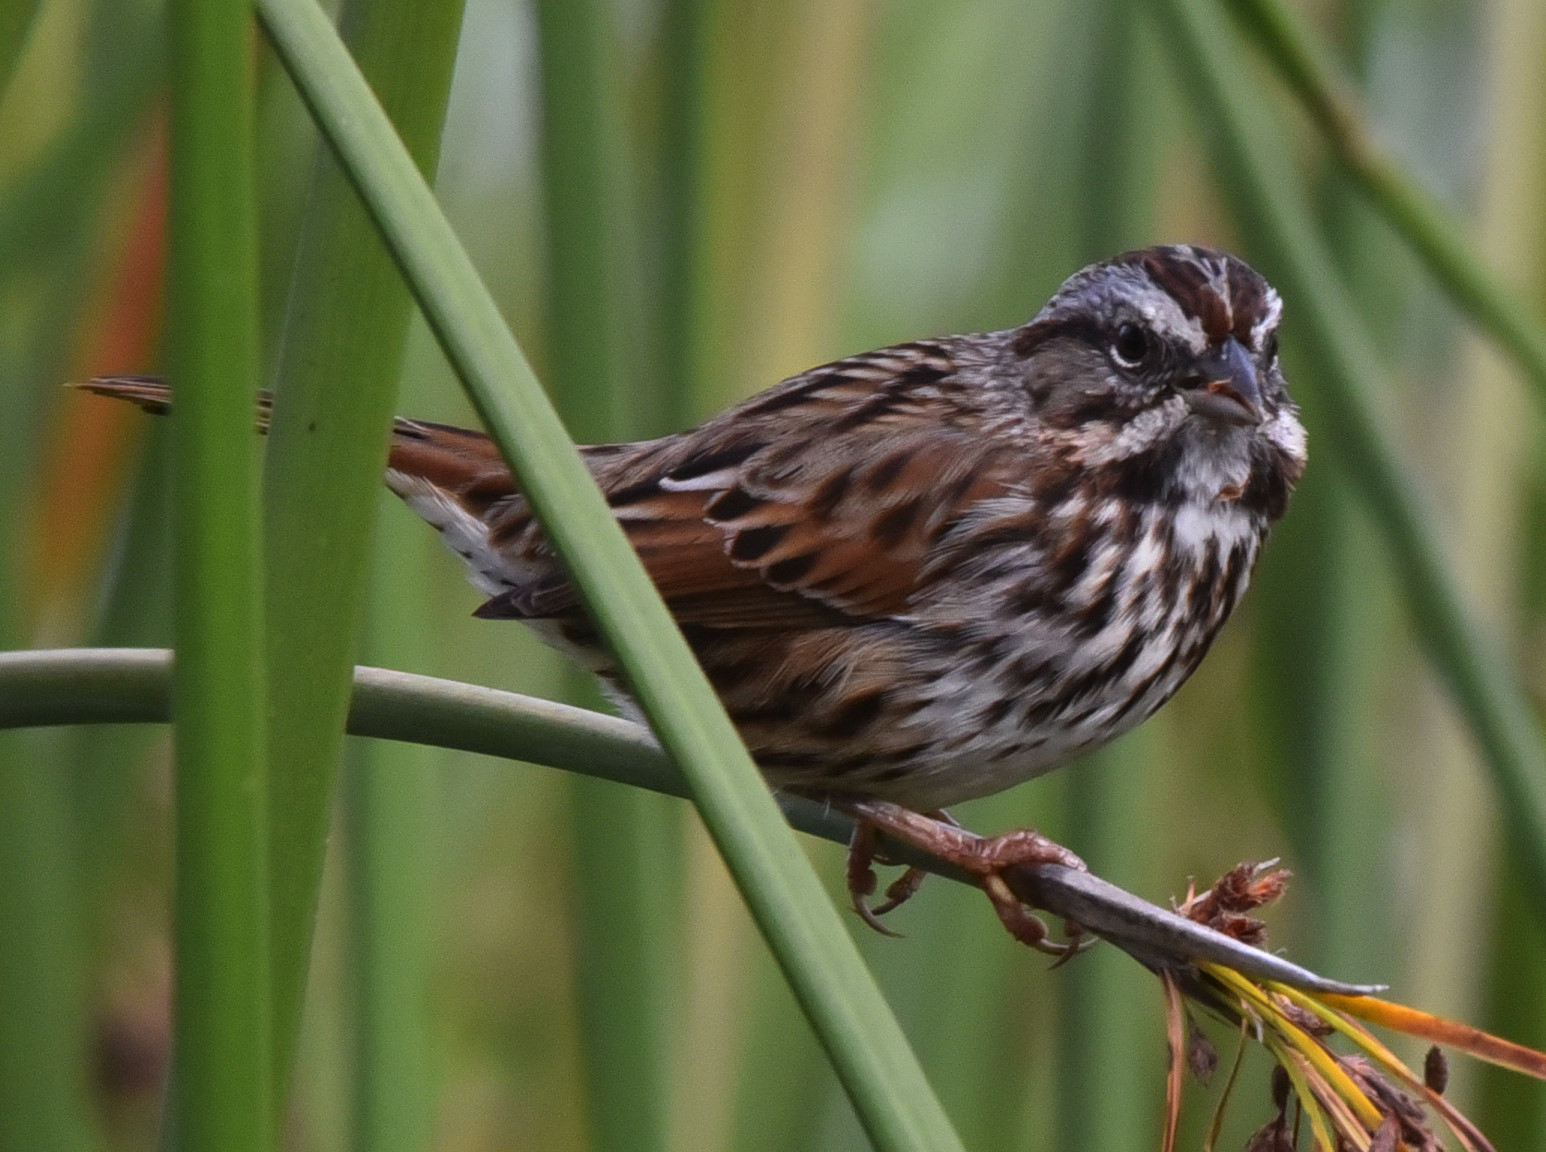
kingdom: Animalia
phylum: Chordata
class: Aves
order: Passeriformes
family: Passerellidae
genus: Melospiza
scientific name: Melospiza melodia
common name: Song sparrow
